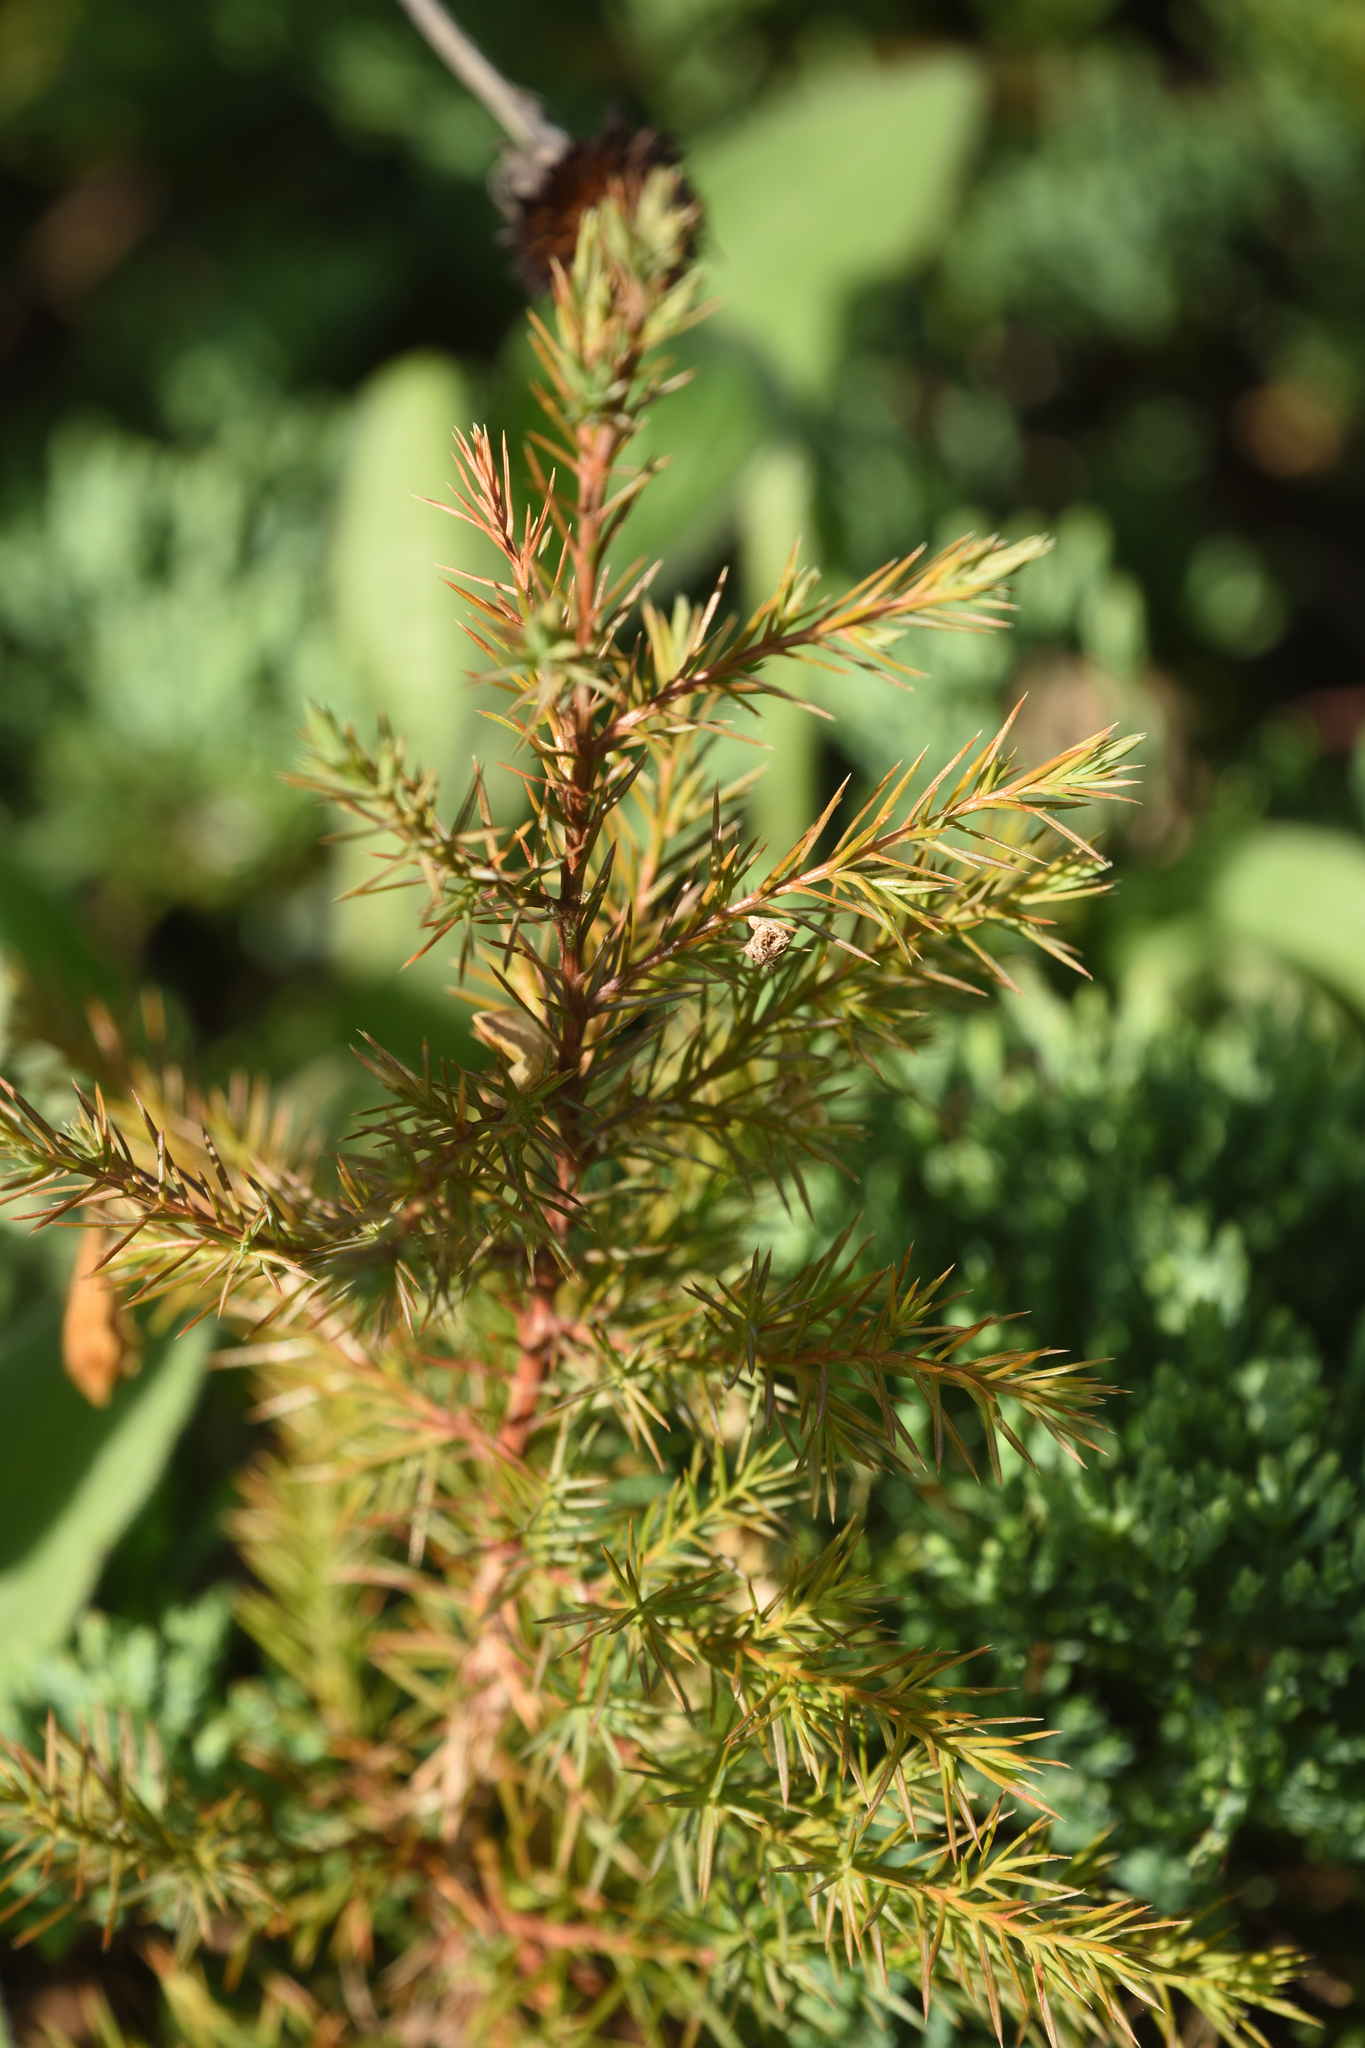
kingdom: Plantae
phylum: Tracheophyta
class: Pinopsida
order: Pinales
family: Cupressaceae
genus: Juniperus
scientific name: Juniperus virginiana
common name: Red juniper
